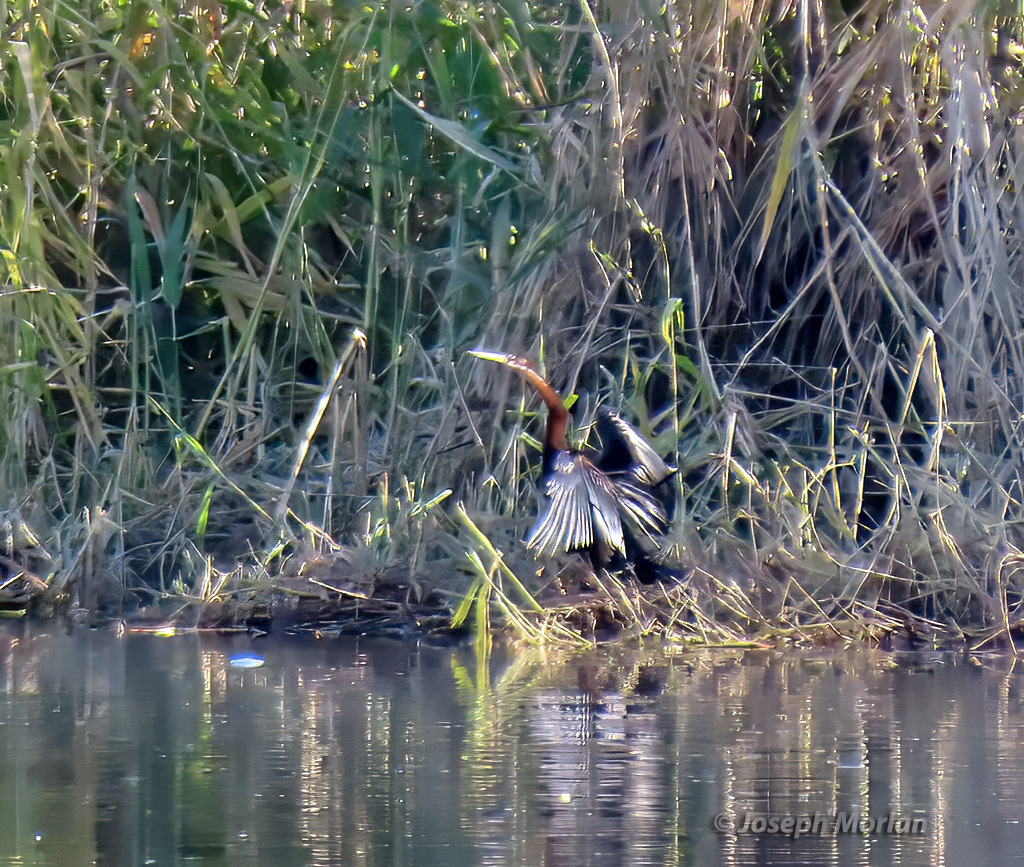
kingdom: Animalia
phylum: Chordata
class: Aves
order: Suliformes
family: Anhingidae
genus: Anhinga
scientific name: Anhinga rufa
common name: African darter
